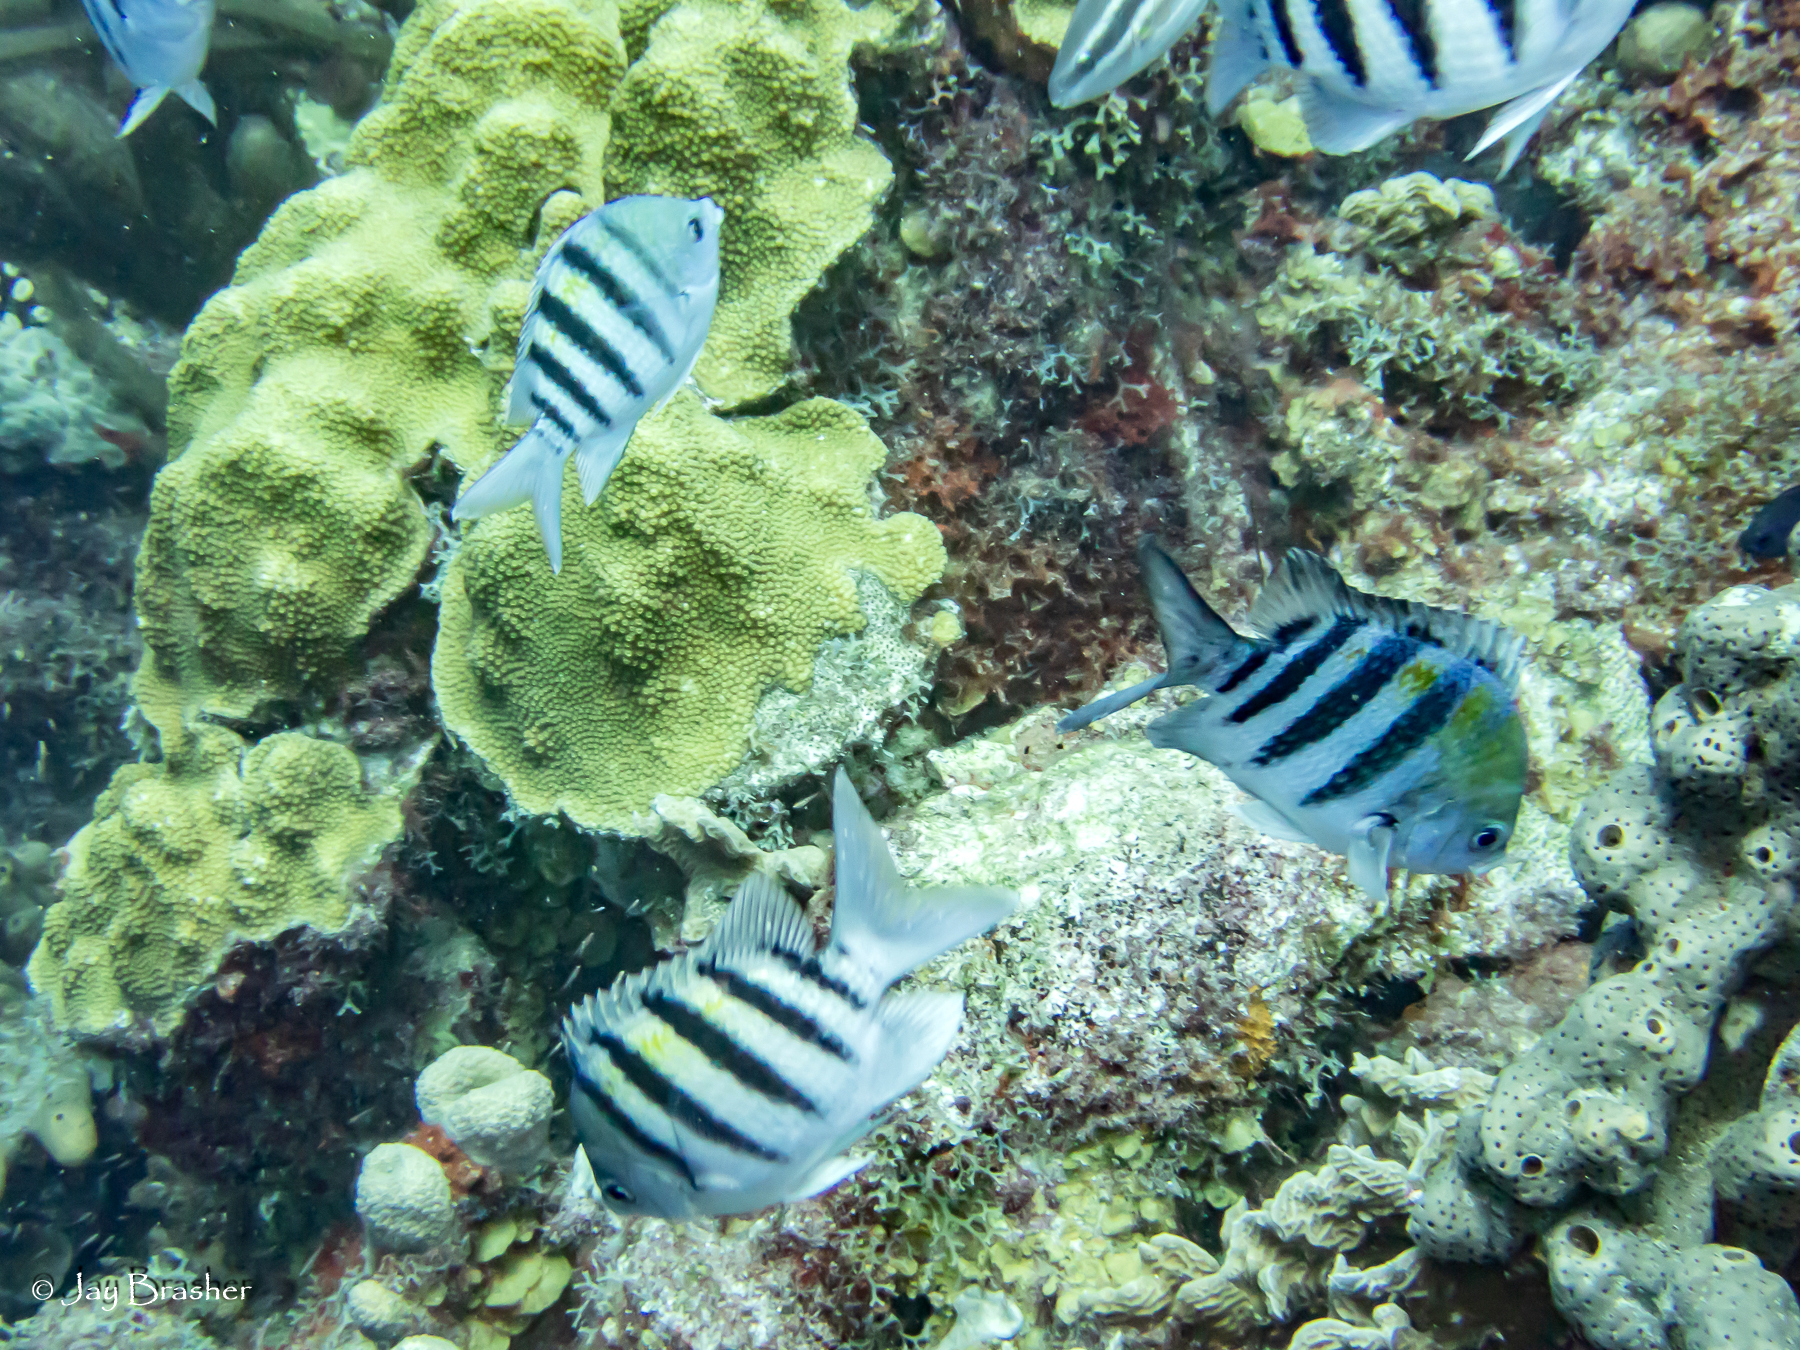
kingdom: Animalia
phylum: Chordata
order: Perciformes
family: Pomacentridae
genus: Abudefduf
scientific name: Abudefduf saxatilis
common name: Sergeant major
